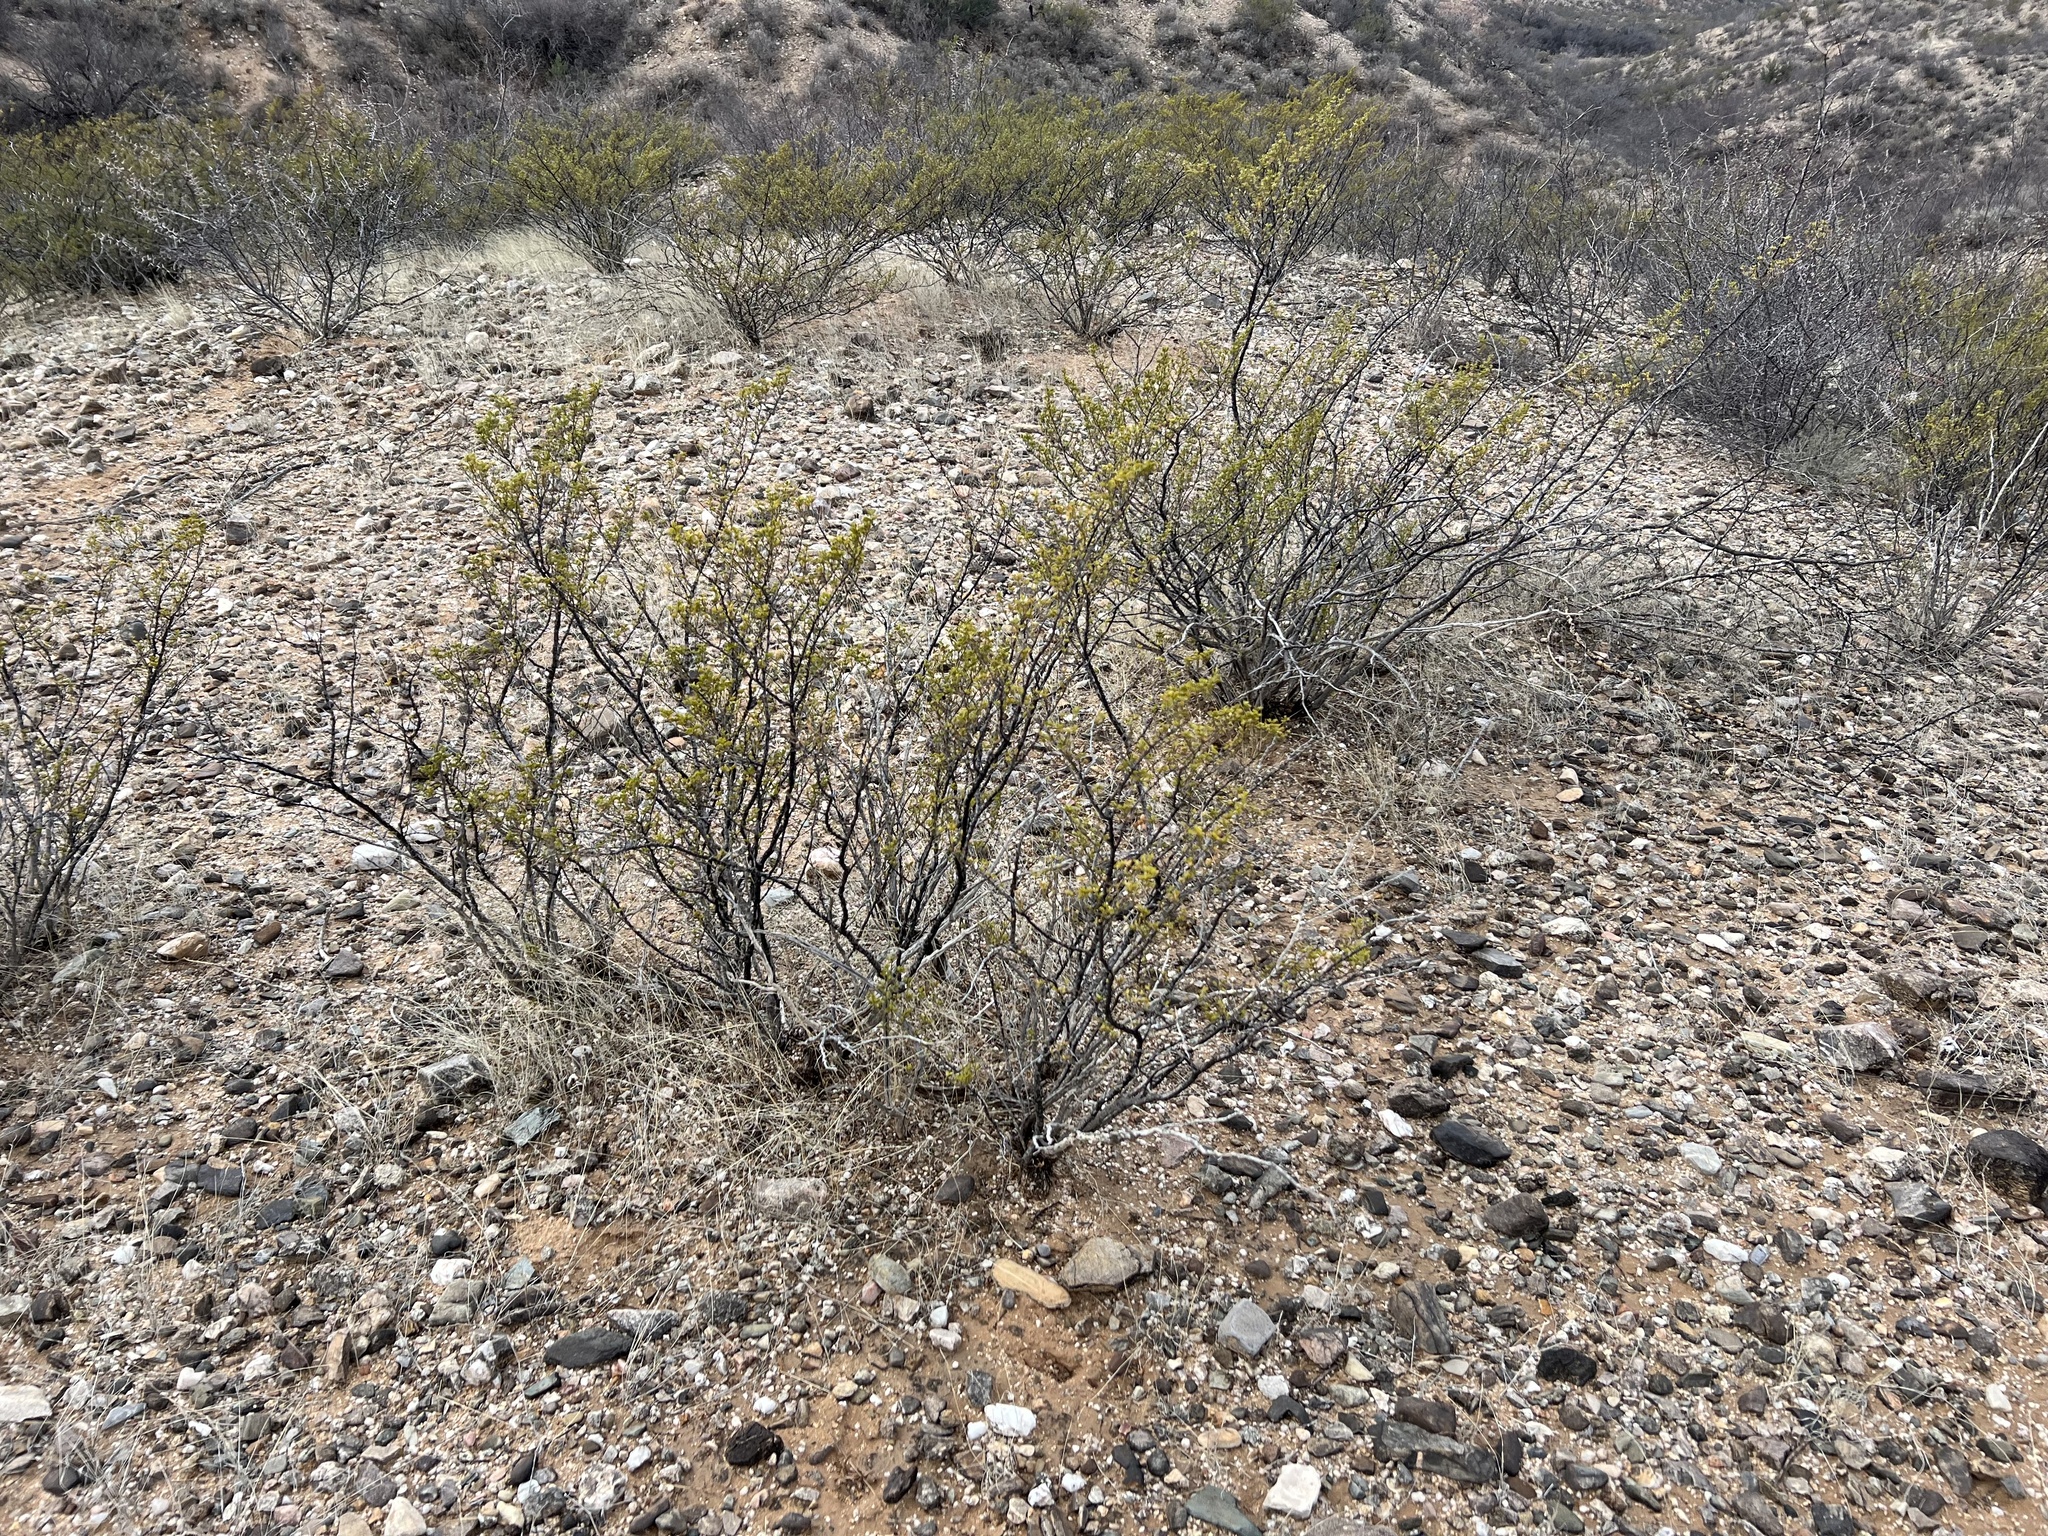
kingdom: Plantae
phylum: Tracheophyta
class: Magnoliopsida
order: Zygophyllales
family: Zygophyllaceae
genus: Larrea
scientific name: Larrea tridentata
